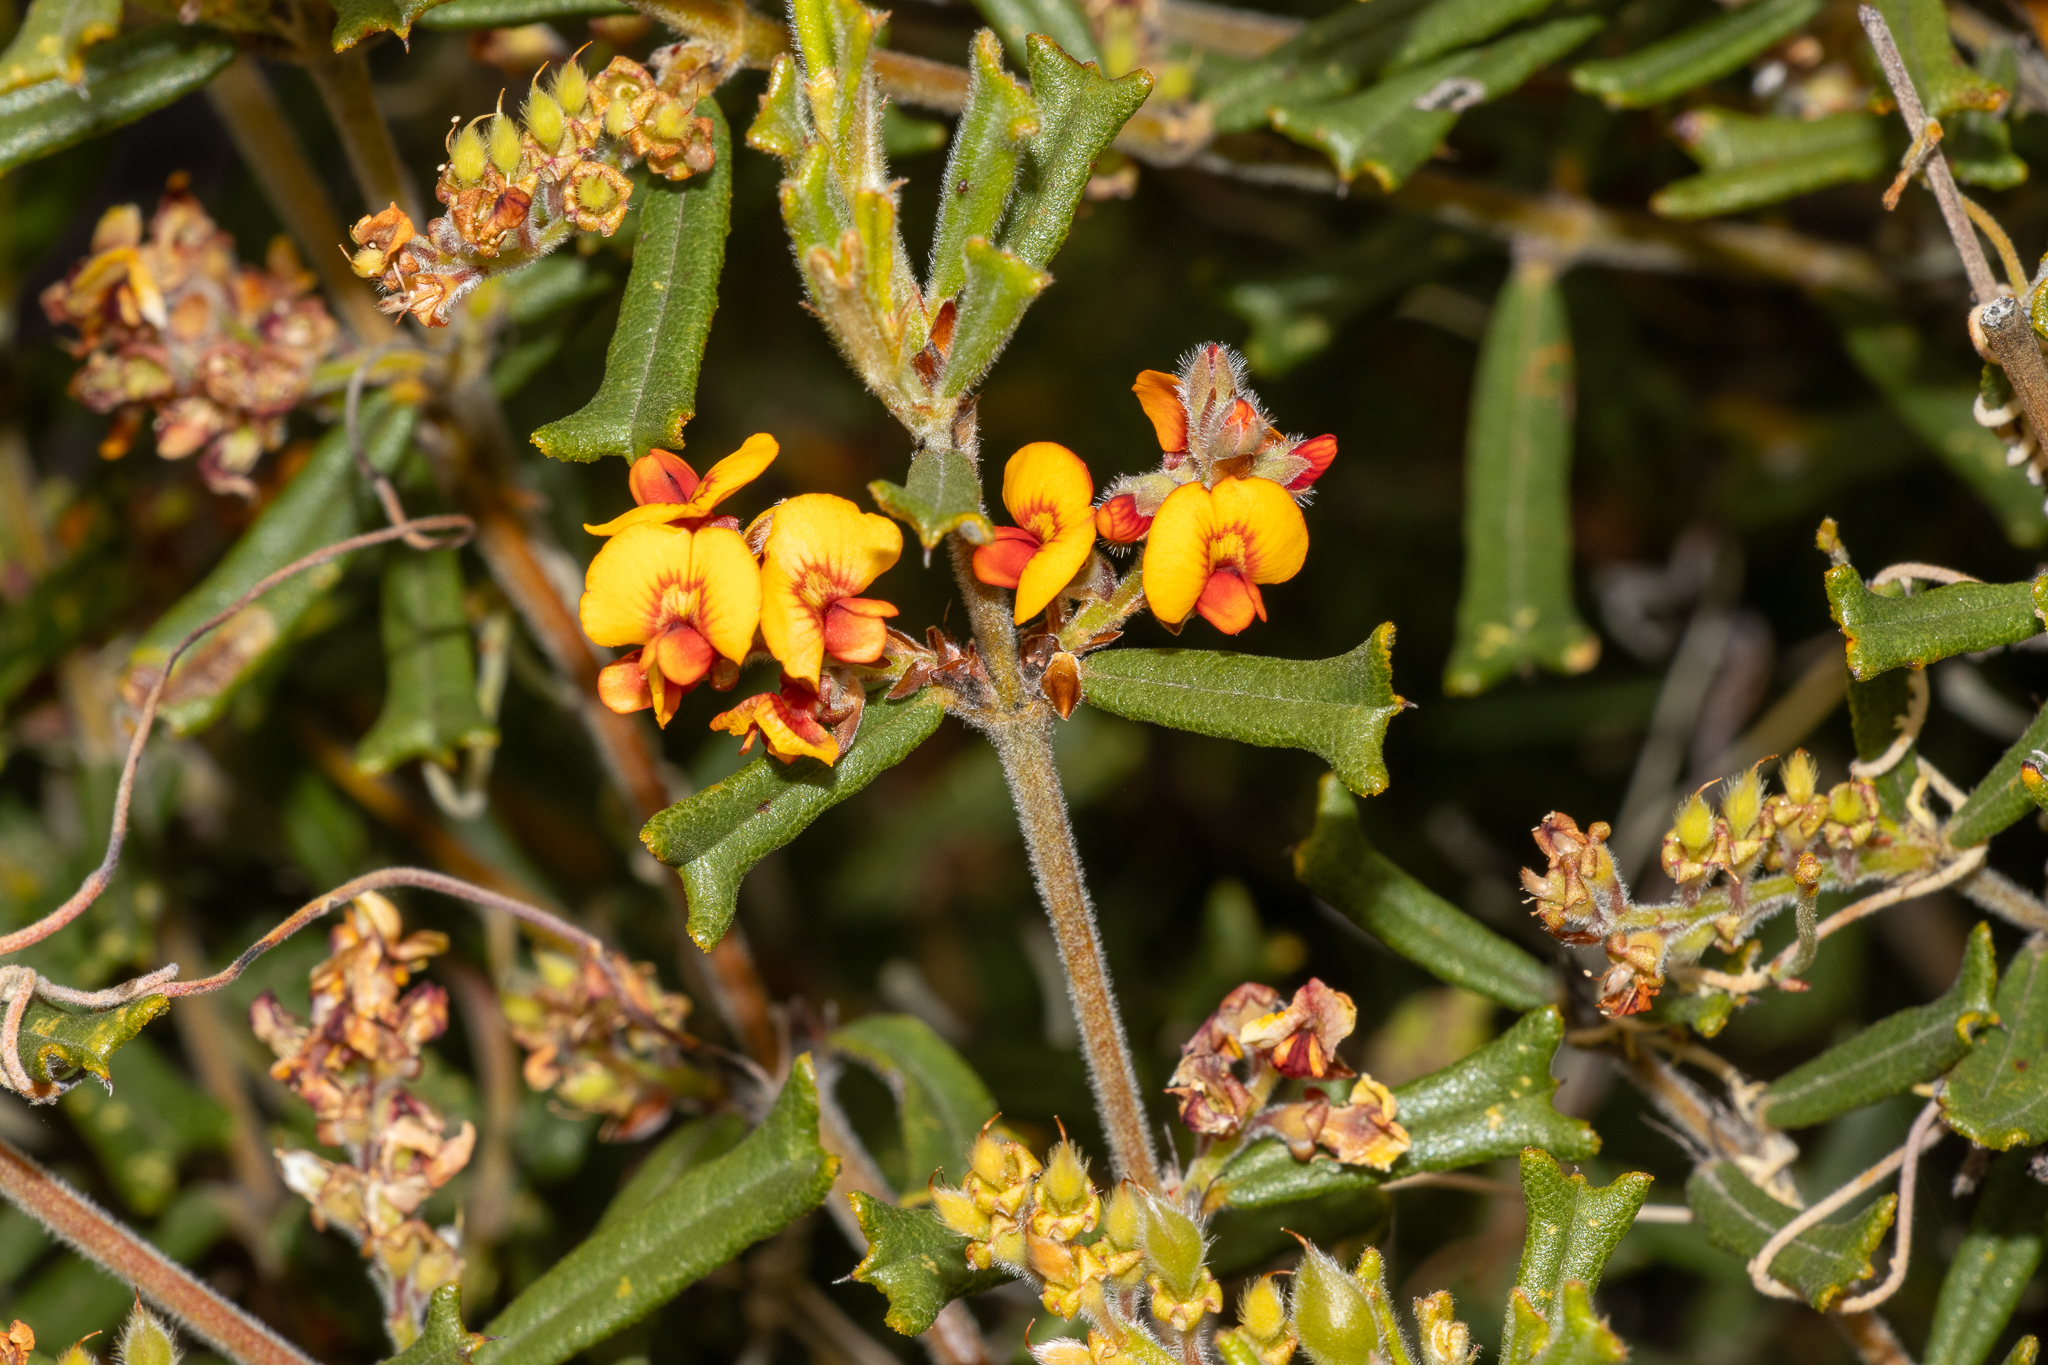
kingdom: Plantae
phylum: Tracheophyta
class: Magnoliopsida
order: Fabales
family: Fabaceae
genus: Gastrolobium
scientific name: Gastrolobium polystachyum
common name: Hill river poison
